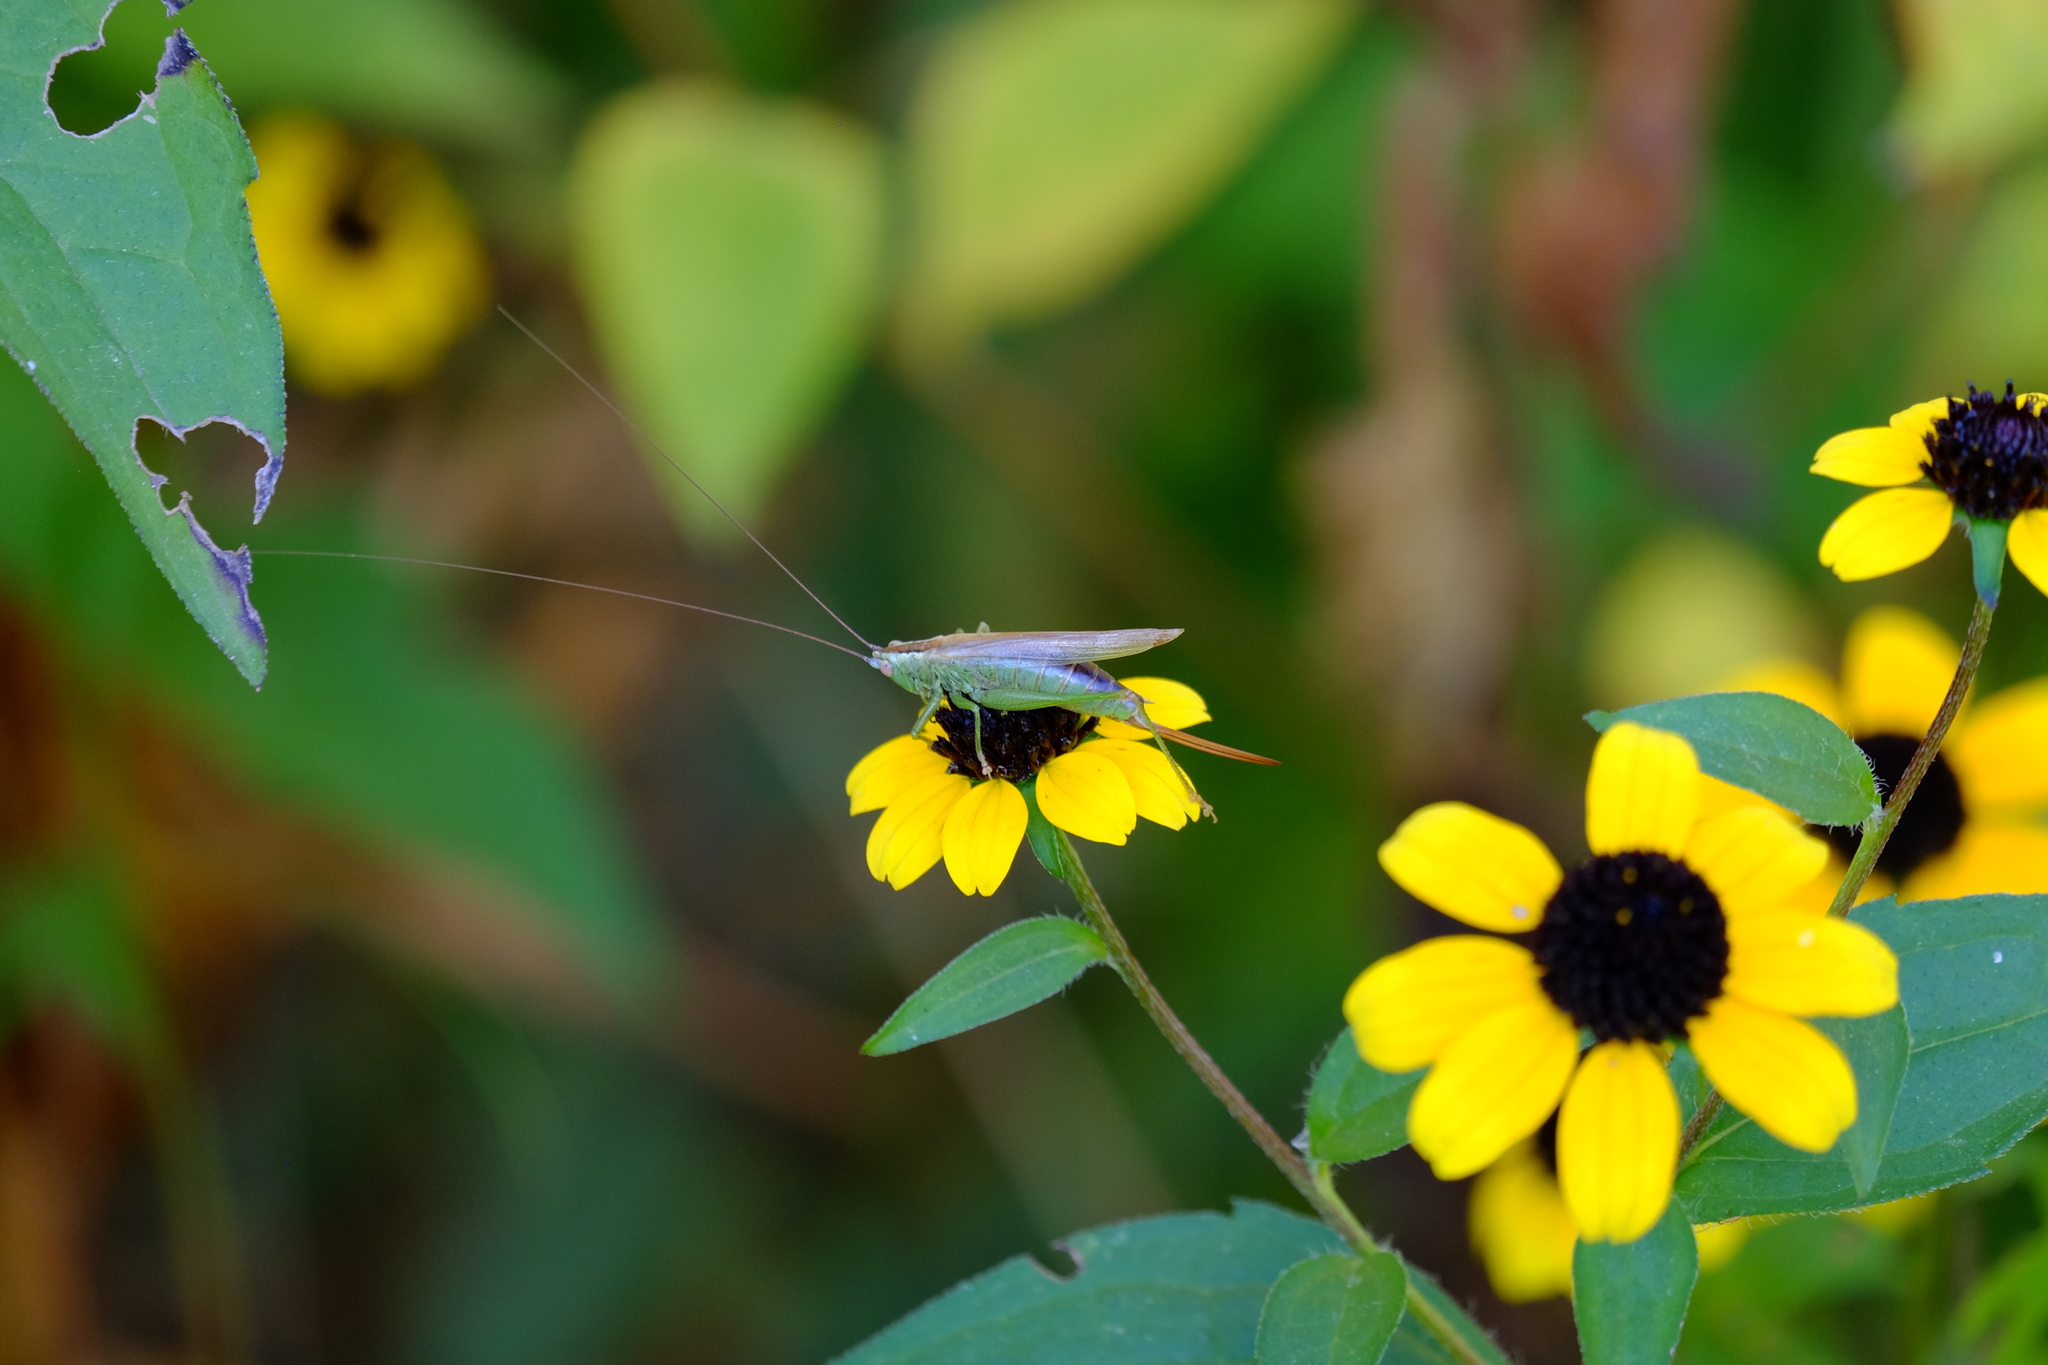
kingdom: Animalia
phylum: Arthropoda
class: Insecta
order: Orthoptera
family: Tettigoniidae
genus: Conocephalus
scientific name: Conocephalus fuscus
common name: Long-winged conehead
